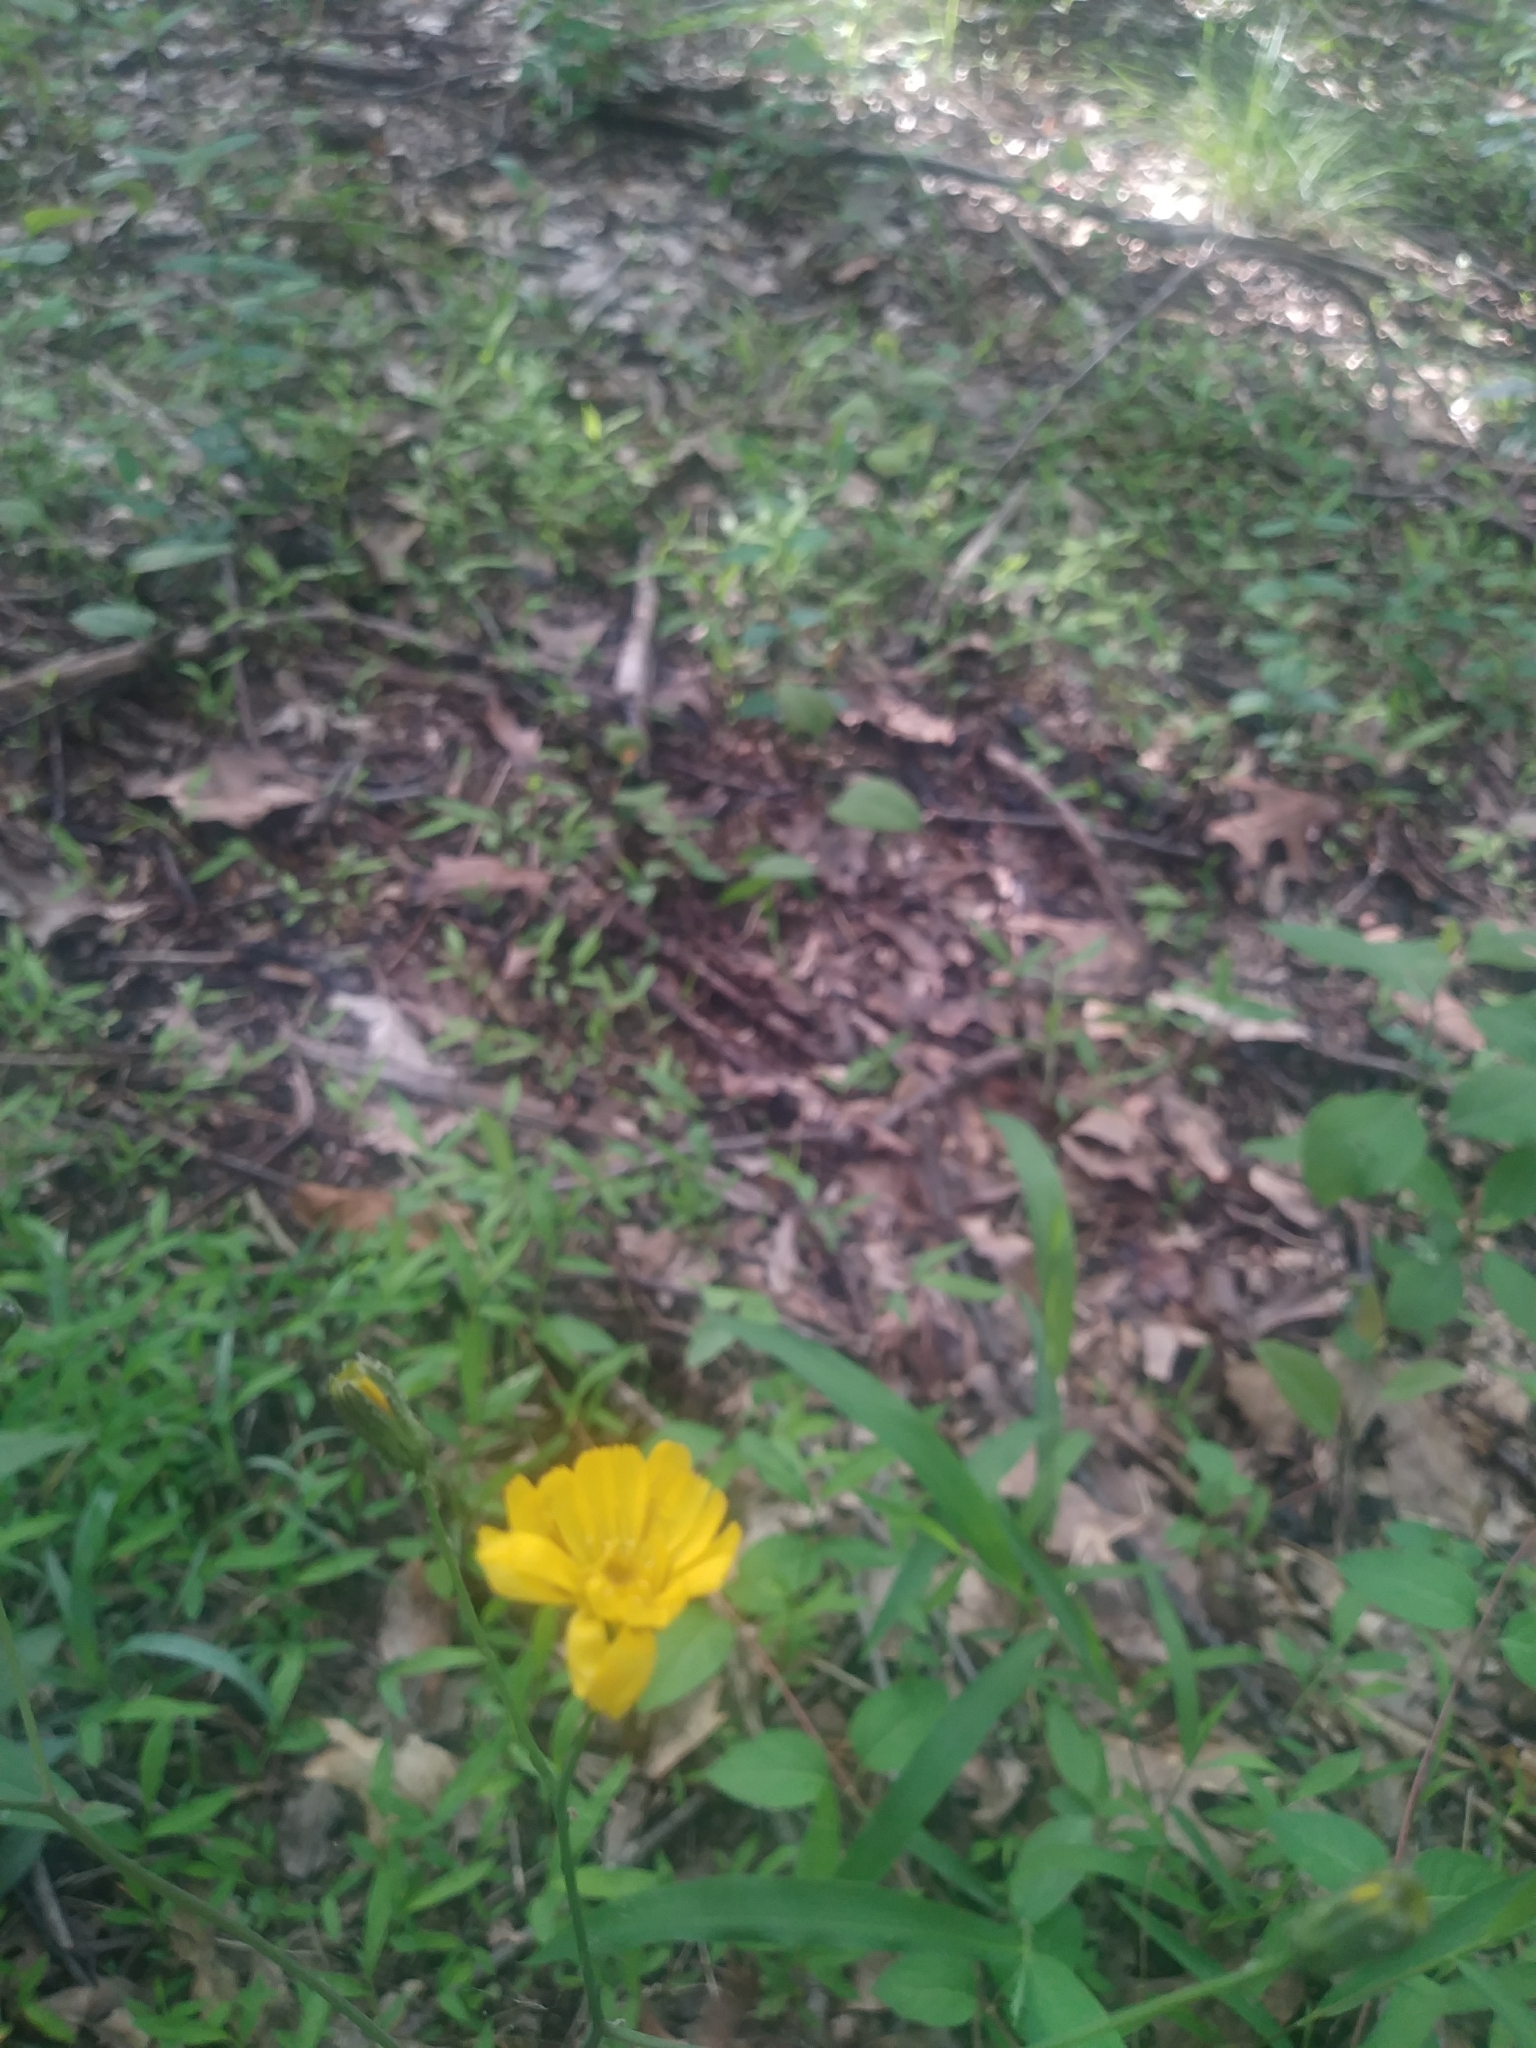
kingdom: Plantae
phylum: Tracheophyta
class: Magnoliopsida
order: Asterales
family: Asteraceae
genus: Hieracium
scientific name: Hieracium venosum
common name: Rattlesnake hawkweed
